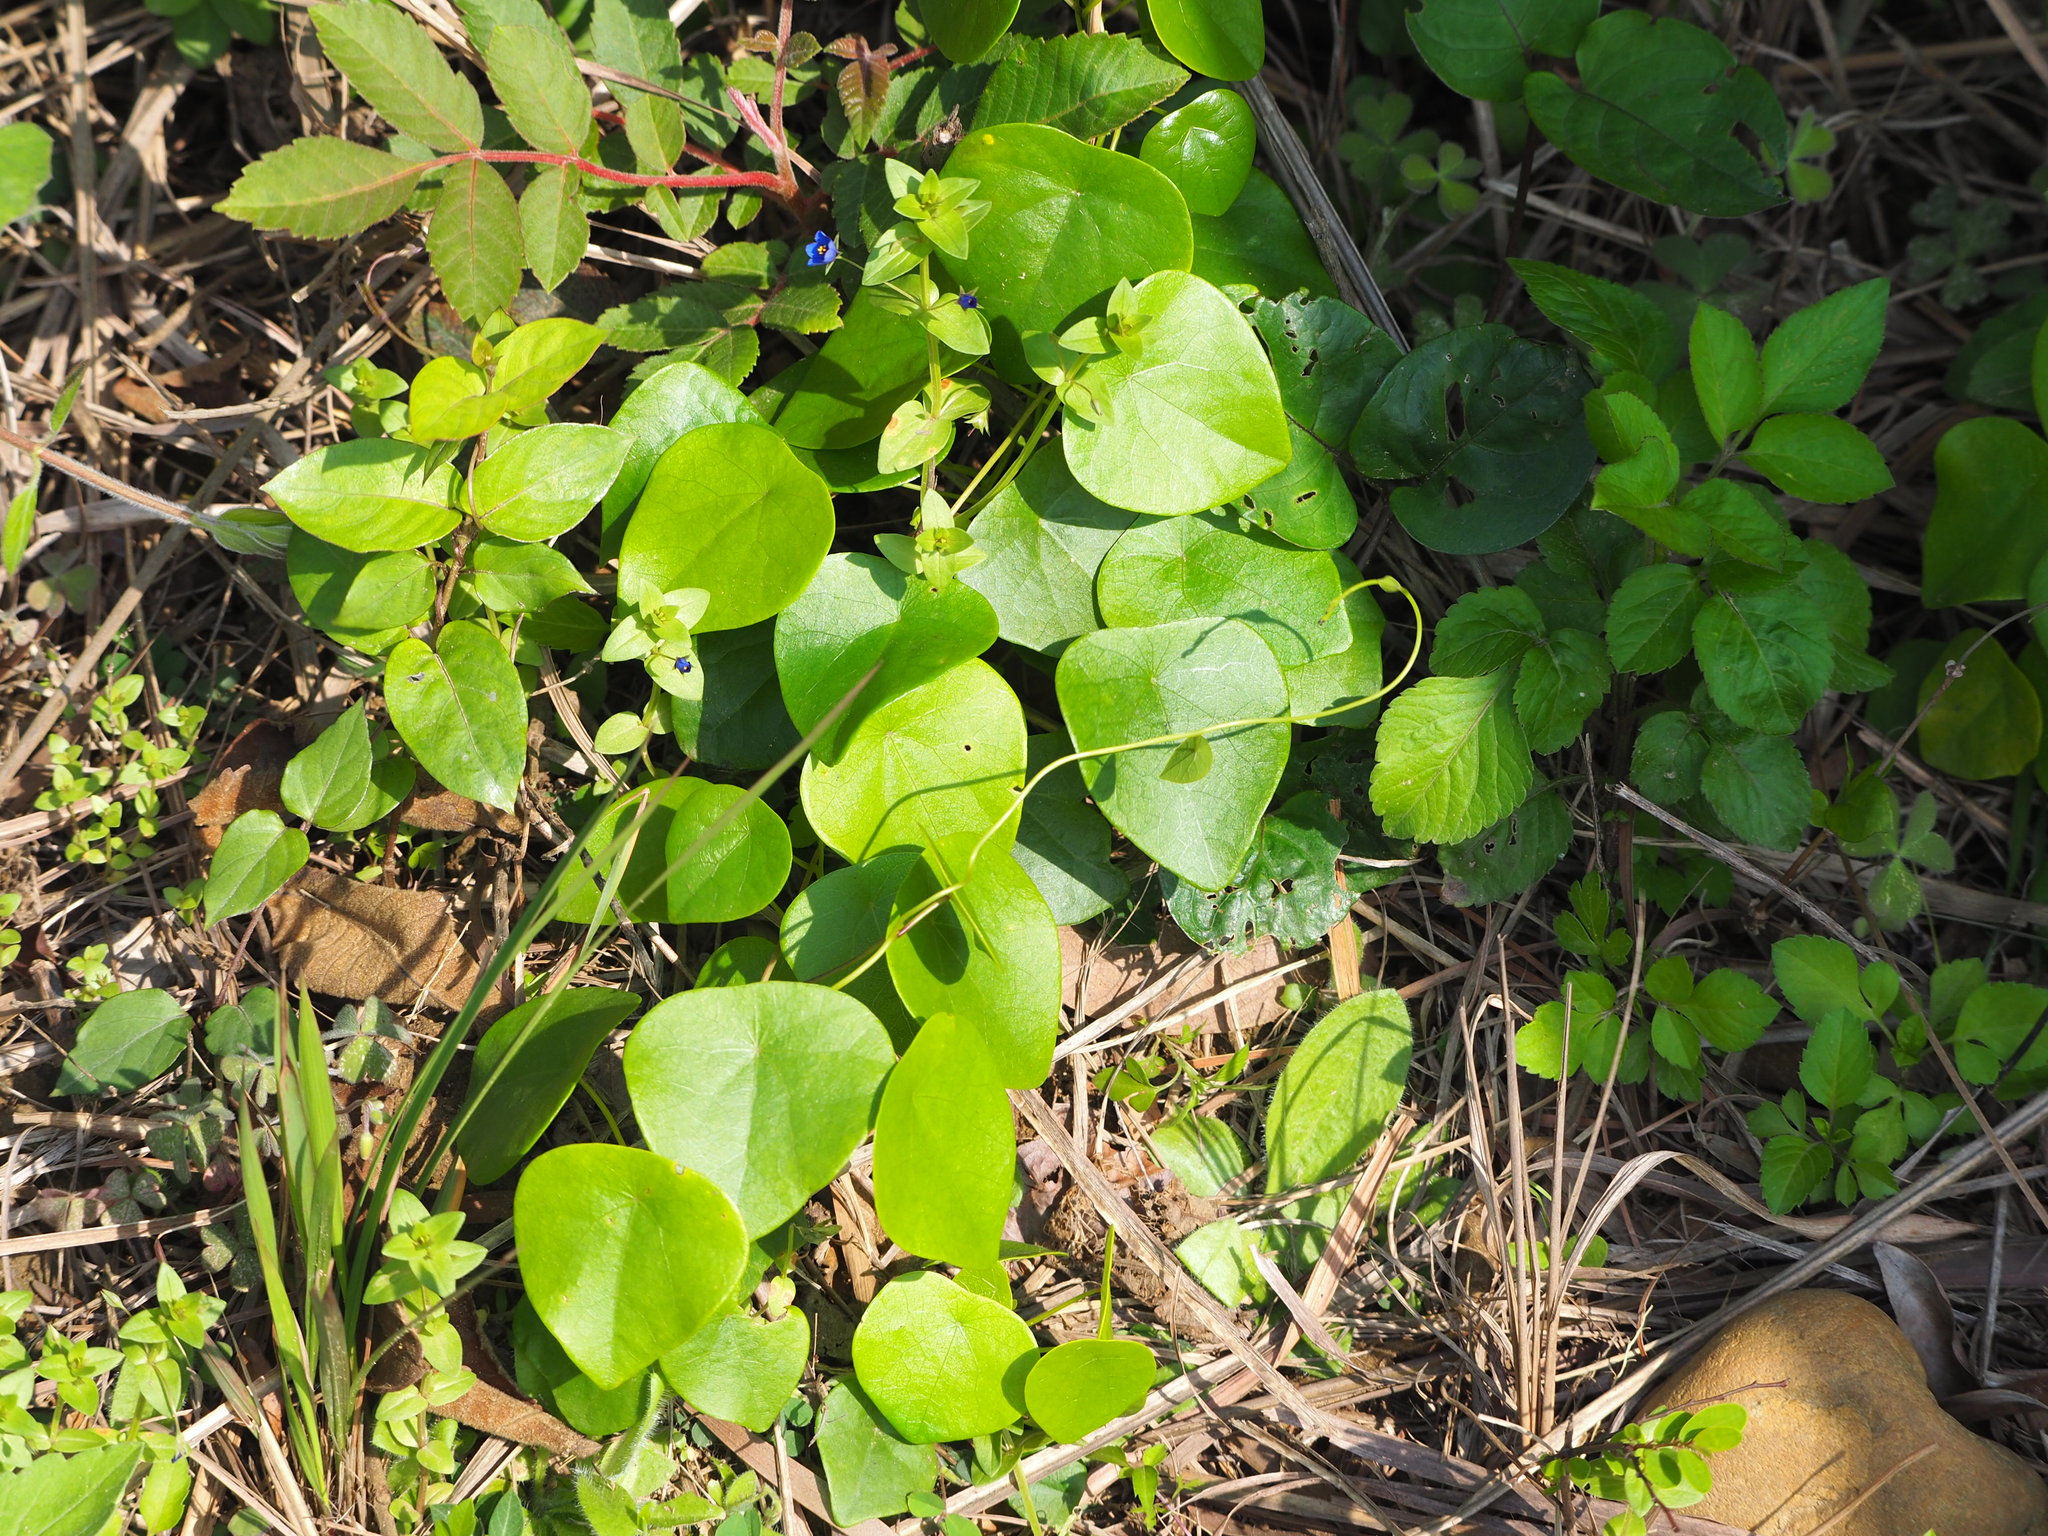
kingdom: Plantae
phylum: Tracheophyta
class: Magnoliopsida
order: Ranunculales
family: Menispermaceae
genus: Stephania
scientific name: Stephania japonica
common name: Snake vine
